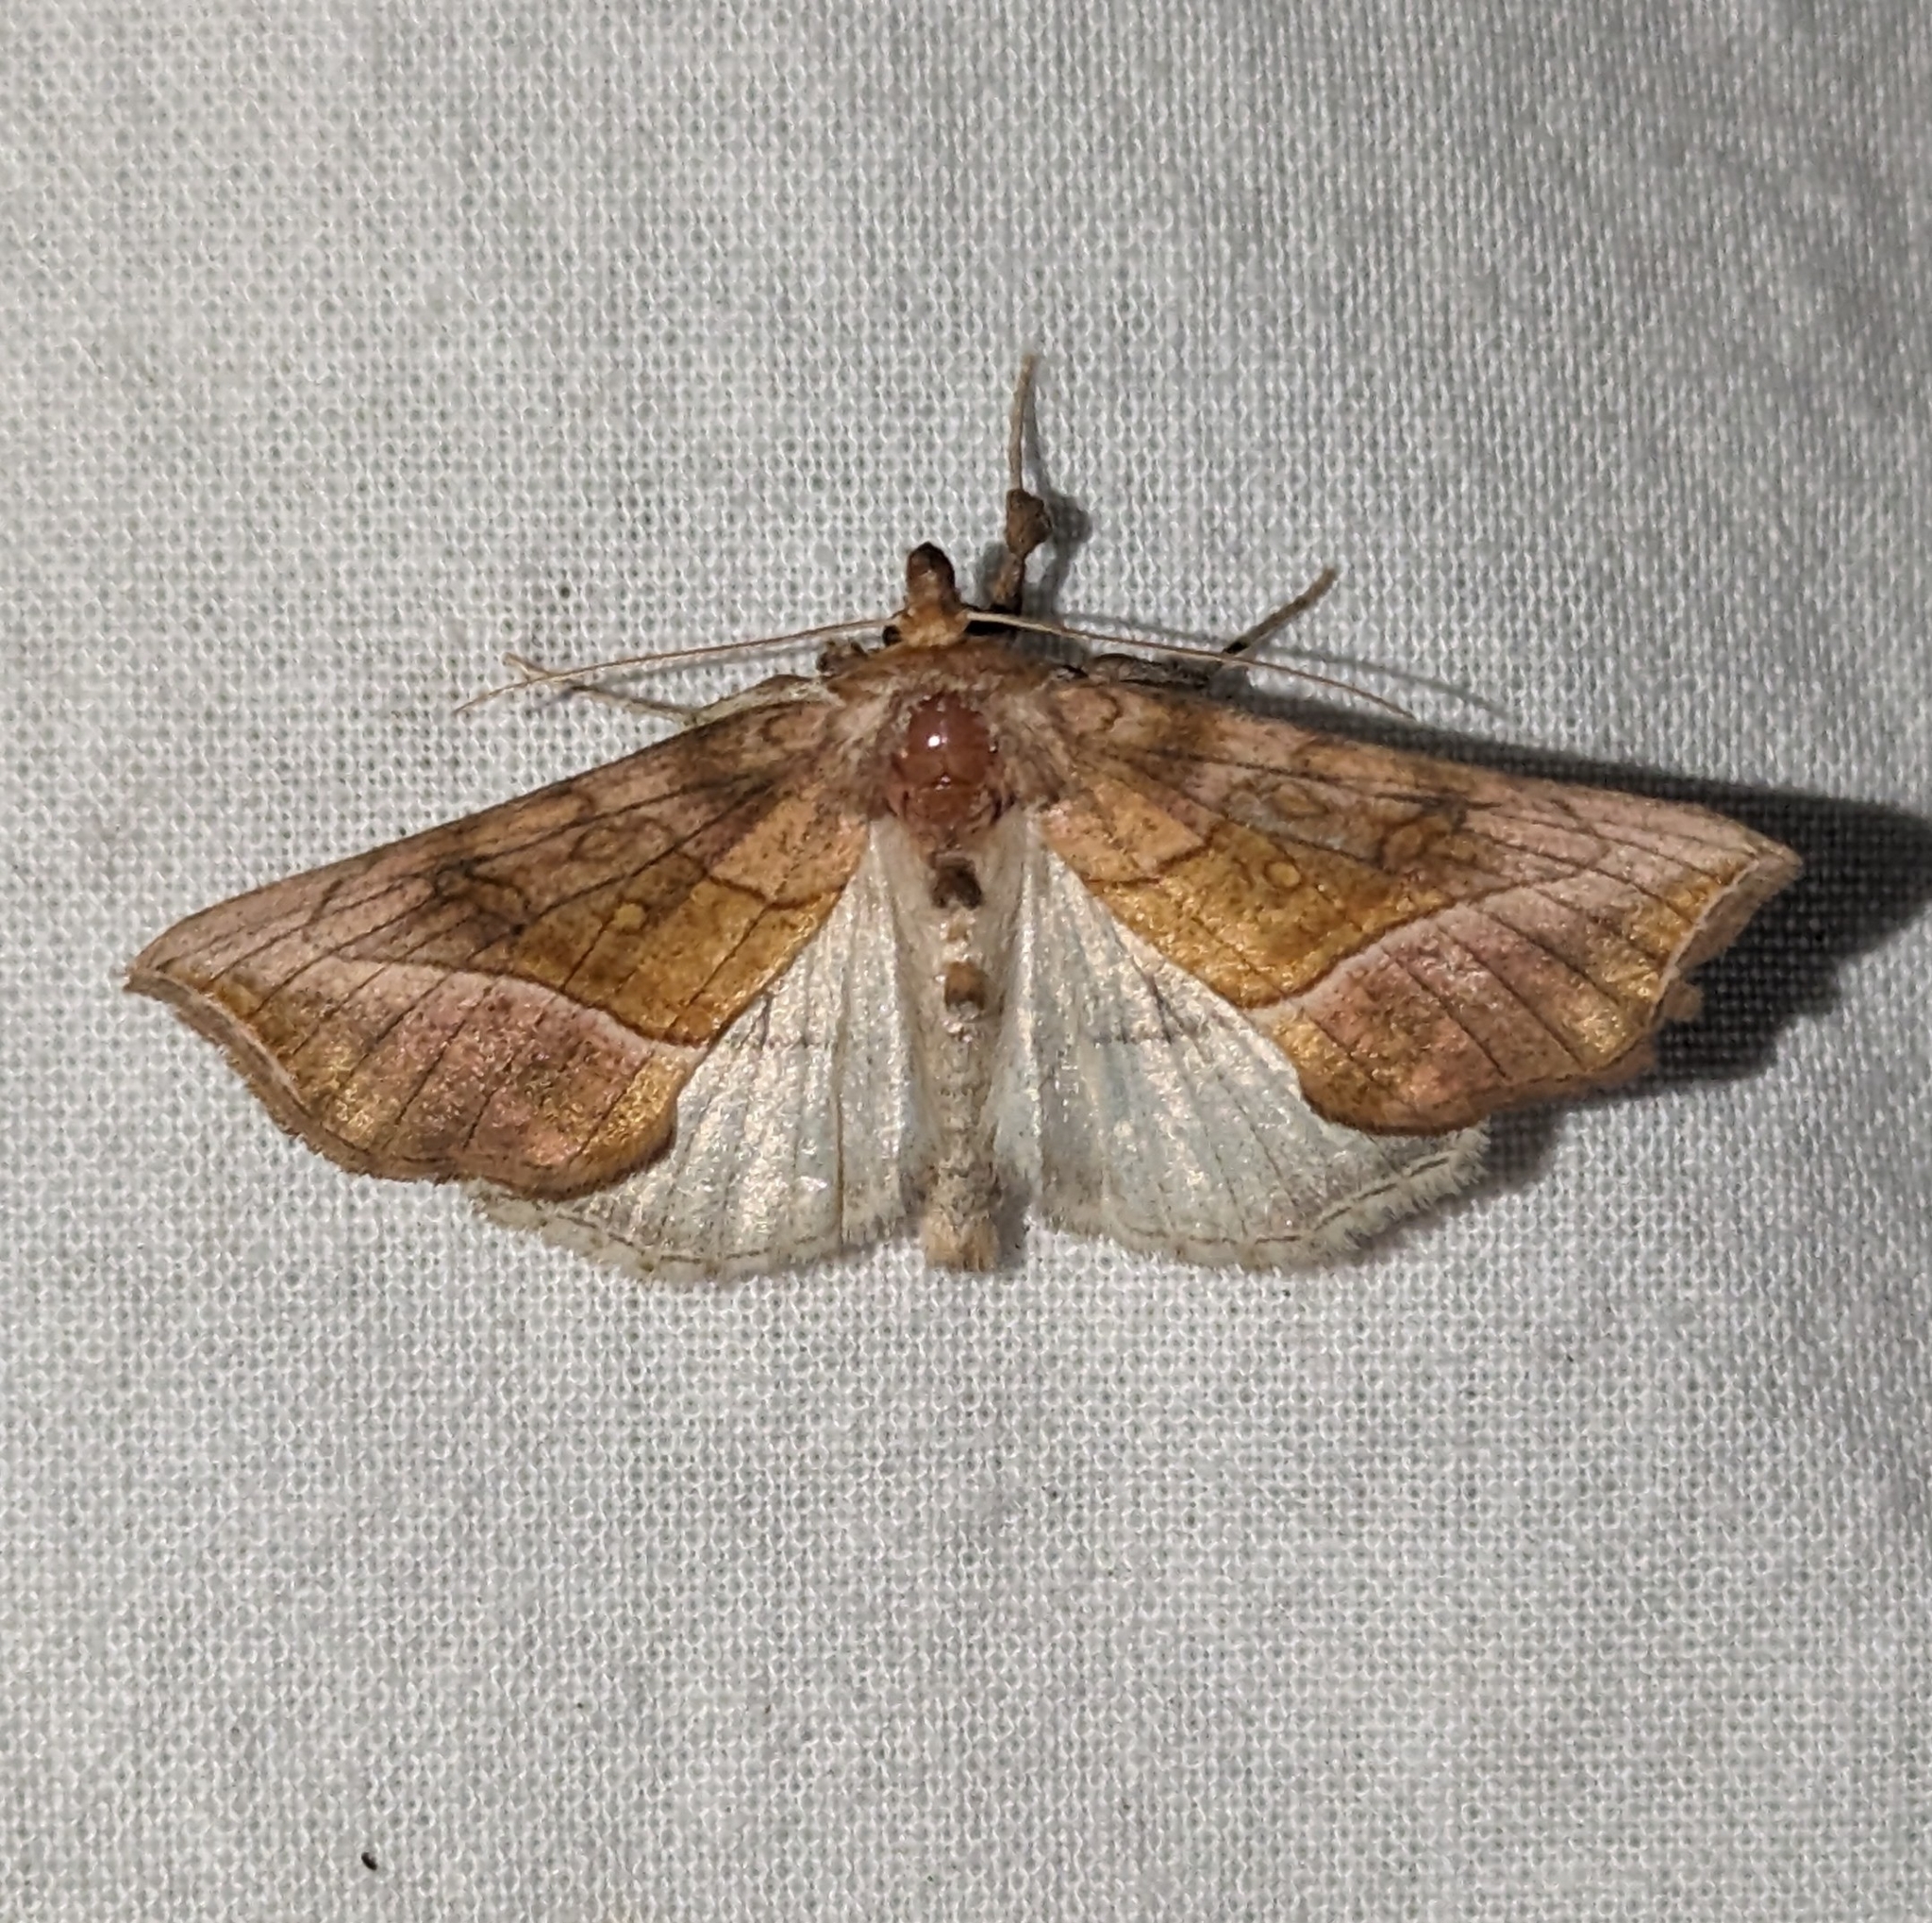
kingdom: Animalia
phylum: Arthropoda
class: Insecta
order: Lepidoptera
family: Noctuidae
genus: Diachrysia
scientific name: Diachrysia aereoides
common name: Dark-spotted looper moth
